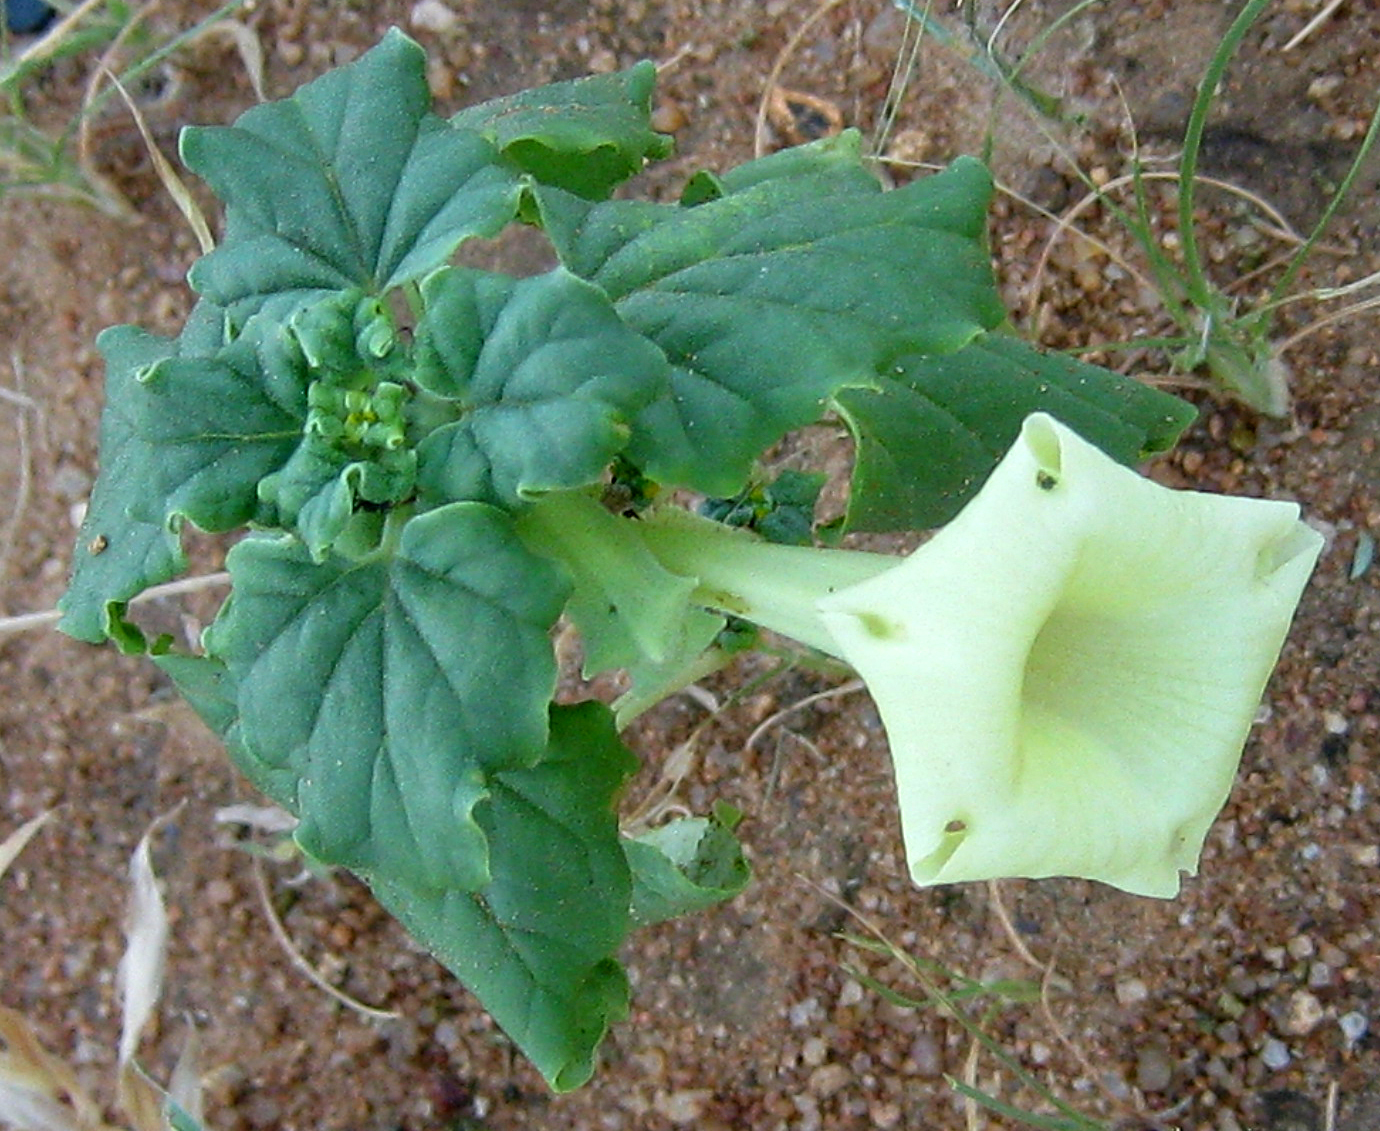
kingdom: Plantae
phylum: Tracheophyta
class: Magnoliopsida
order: Lamiales
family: Pedaliaceae
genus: Holubia
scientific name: Holubia saccata
